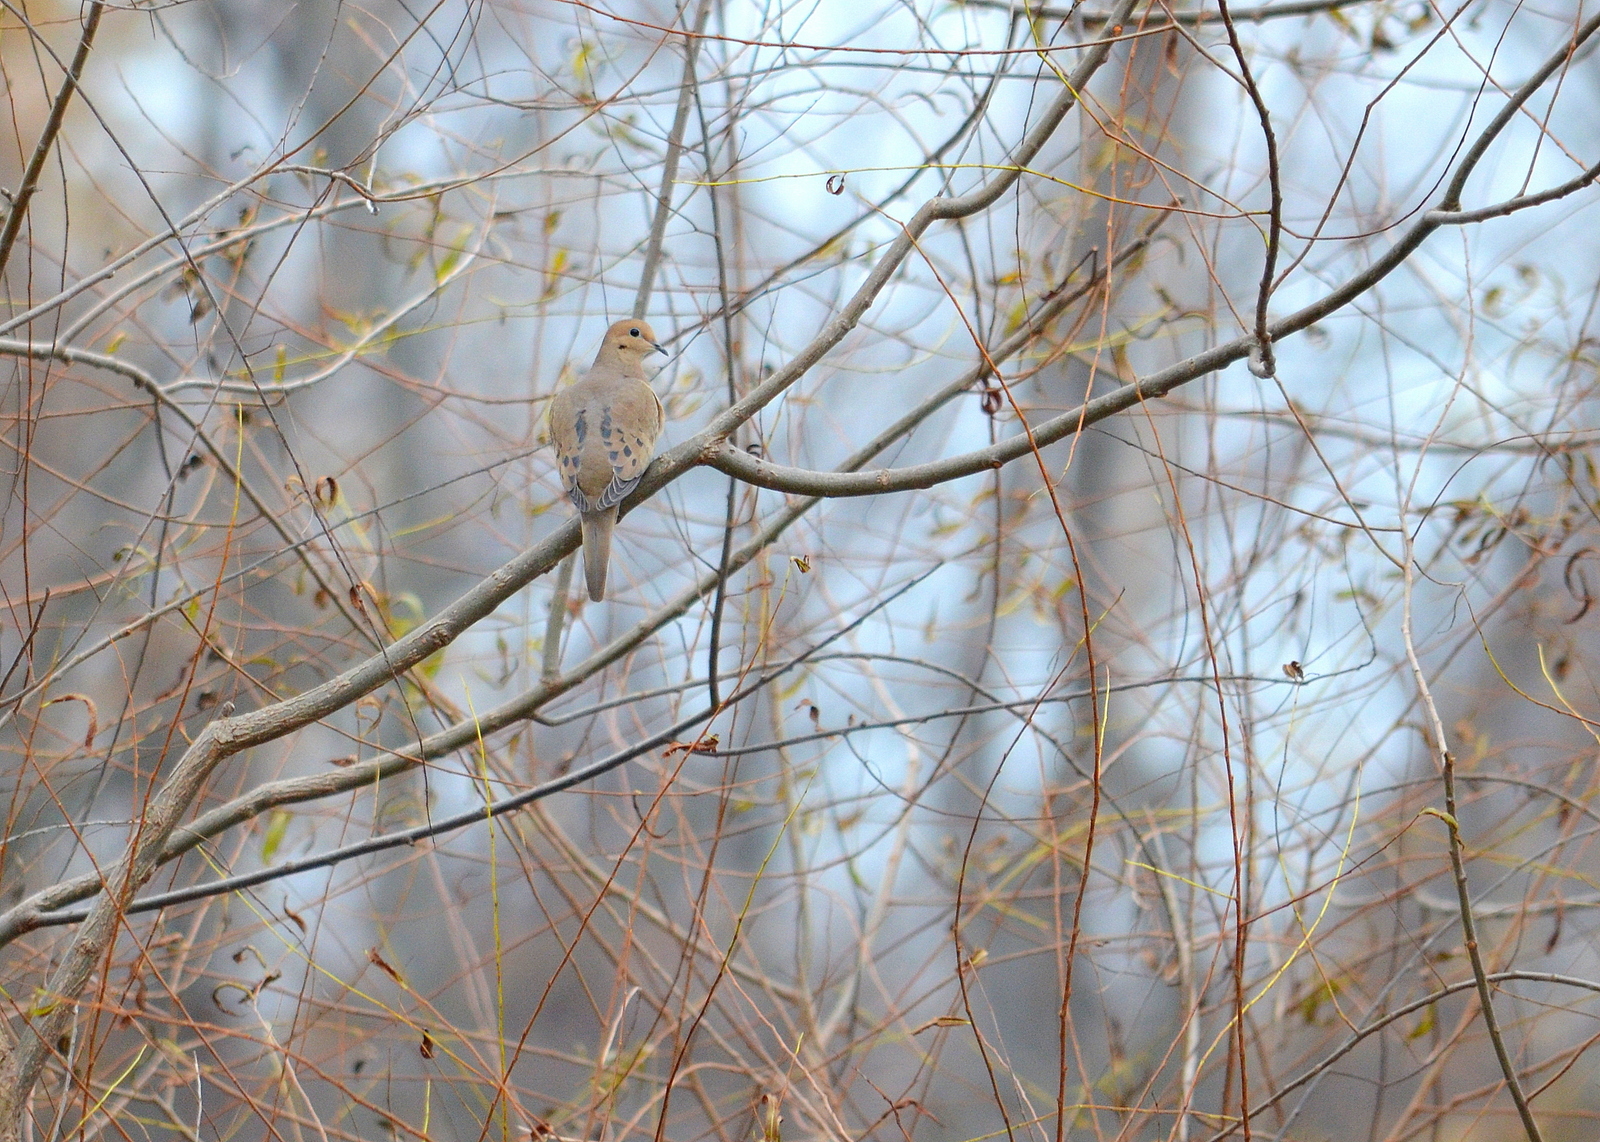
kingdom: Animalia
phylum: Chordata
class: Aves
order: Columbiformes
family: Columbidae
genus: Zenaida
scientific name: Zenaida macroura
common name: Mourning dove
